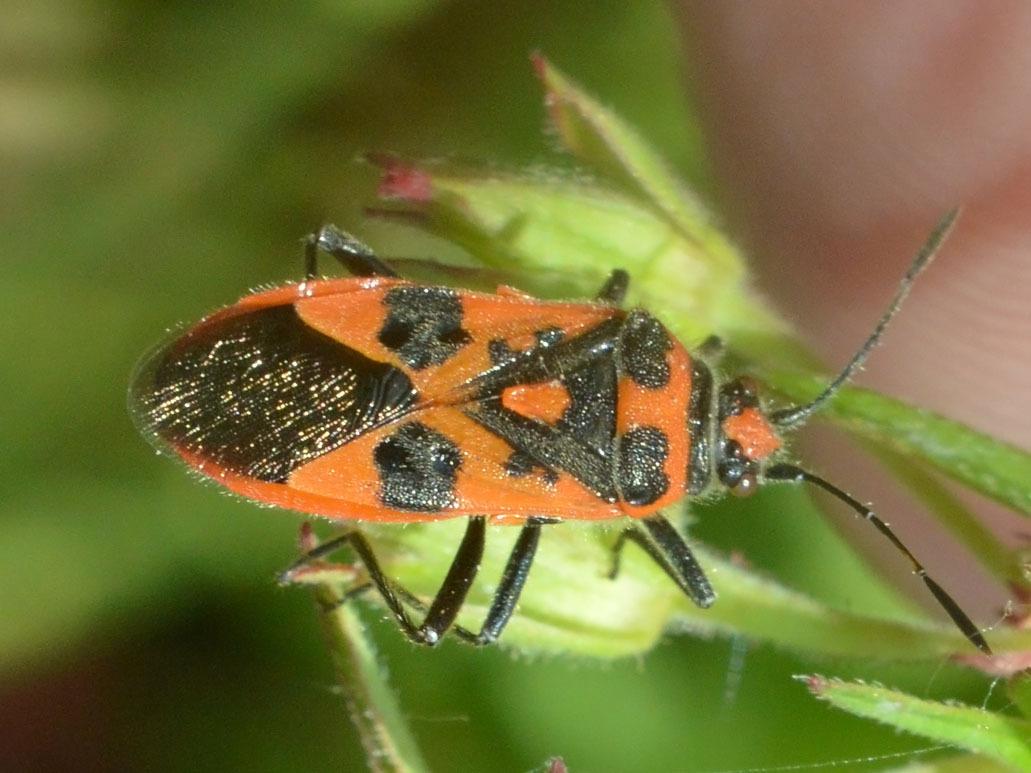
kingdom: Animalia
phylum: Arthropoda
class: Insecta
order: Hemiptera
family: Rhopalidae
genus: Corizus
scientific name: Corizus hyoscyami
